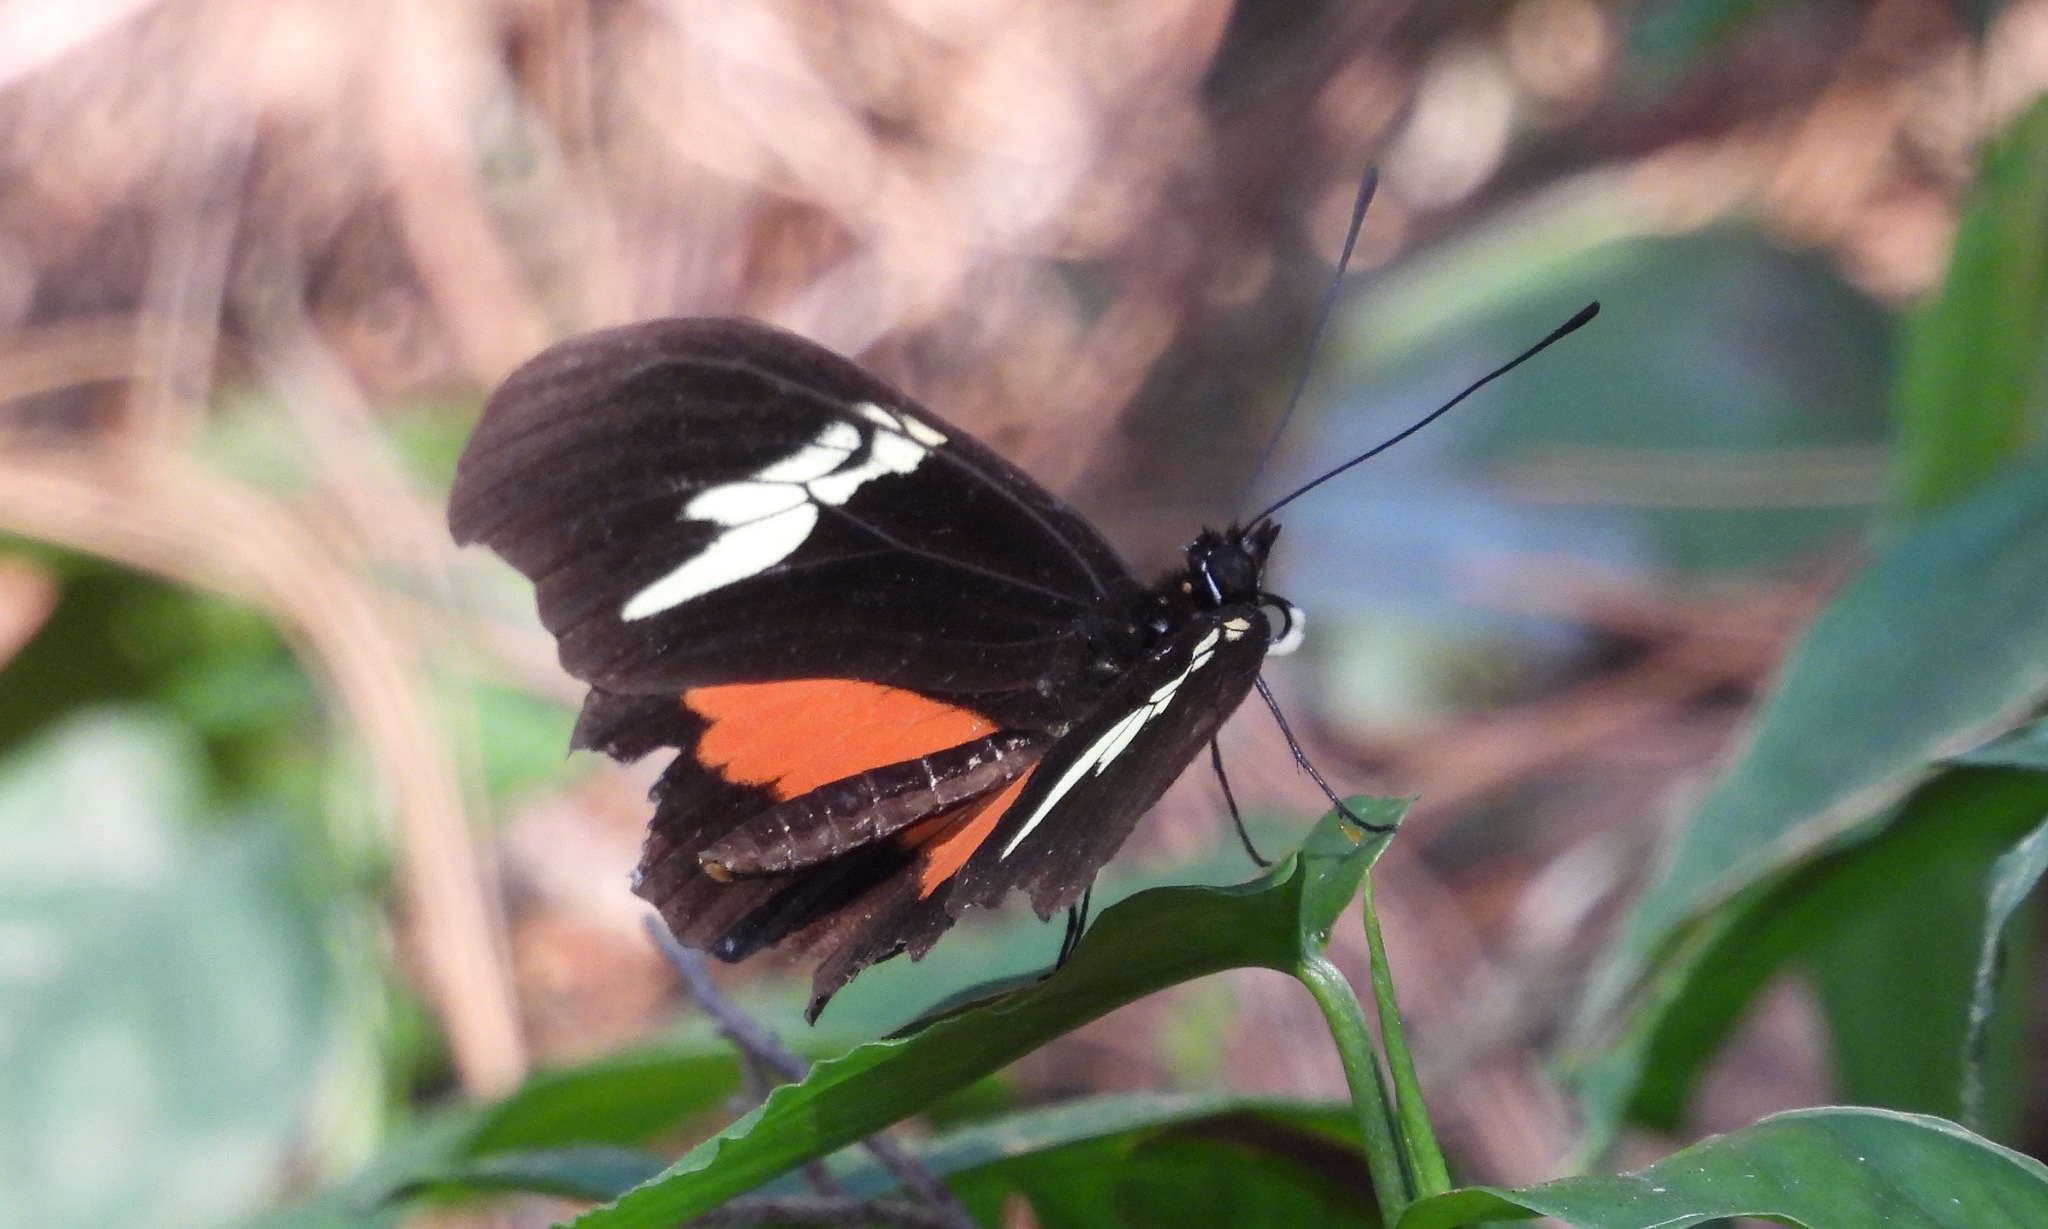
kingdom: Animalia
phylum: Arthropoda
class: Insecta
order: Lepidoptera
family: Nymphalidae
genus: Heliconius
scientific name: Heliconius hortense
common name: Mexican longwing
